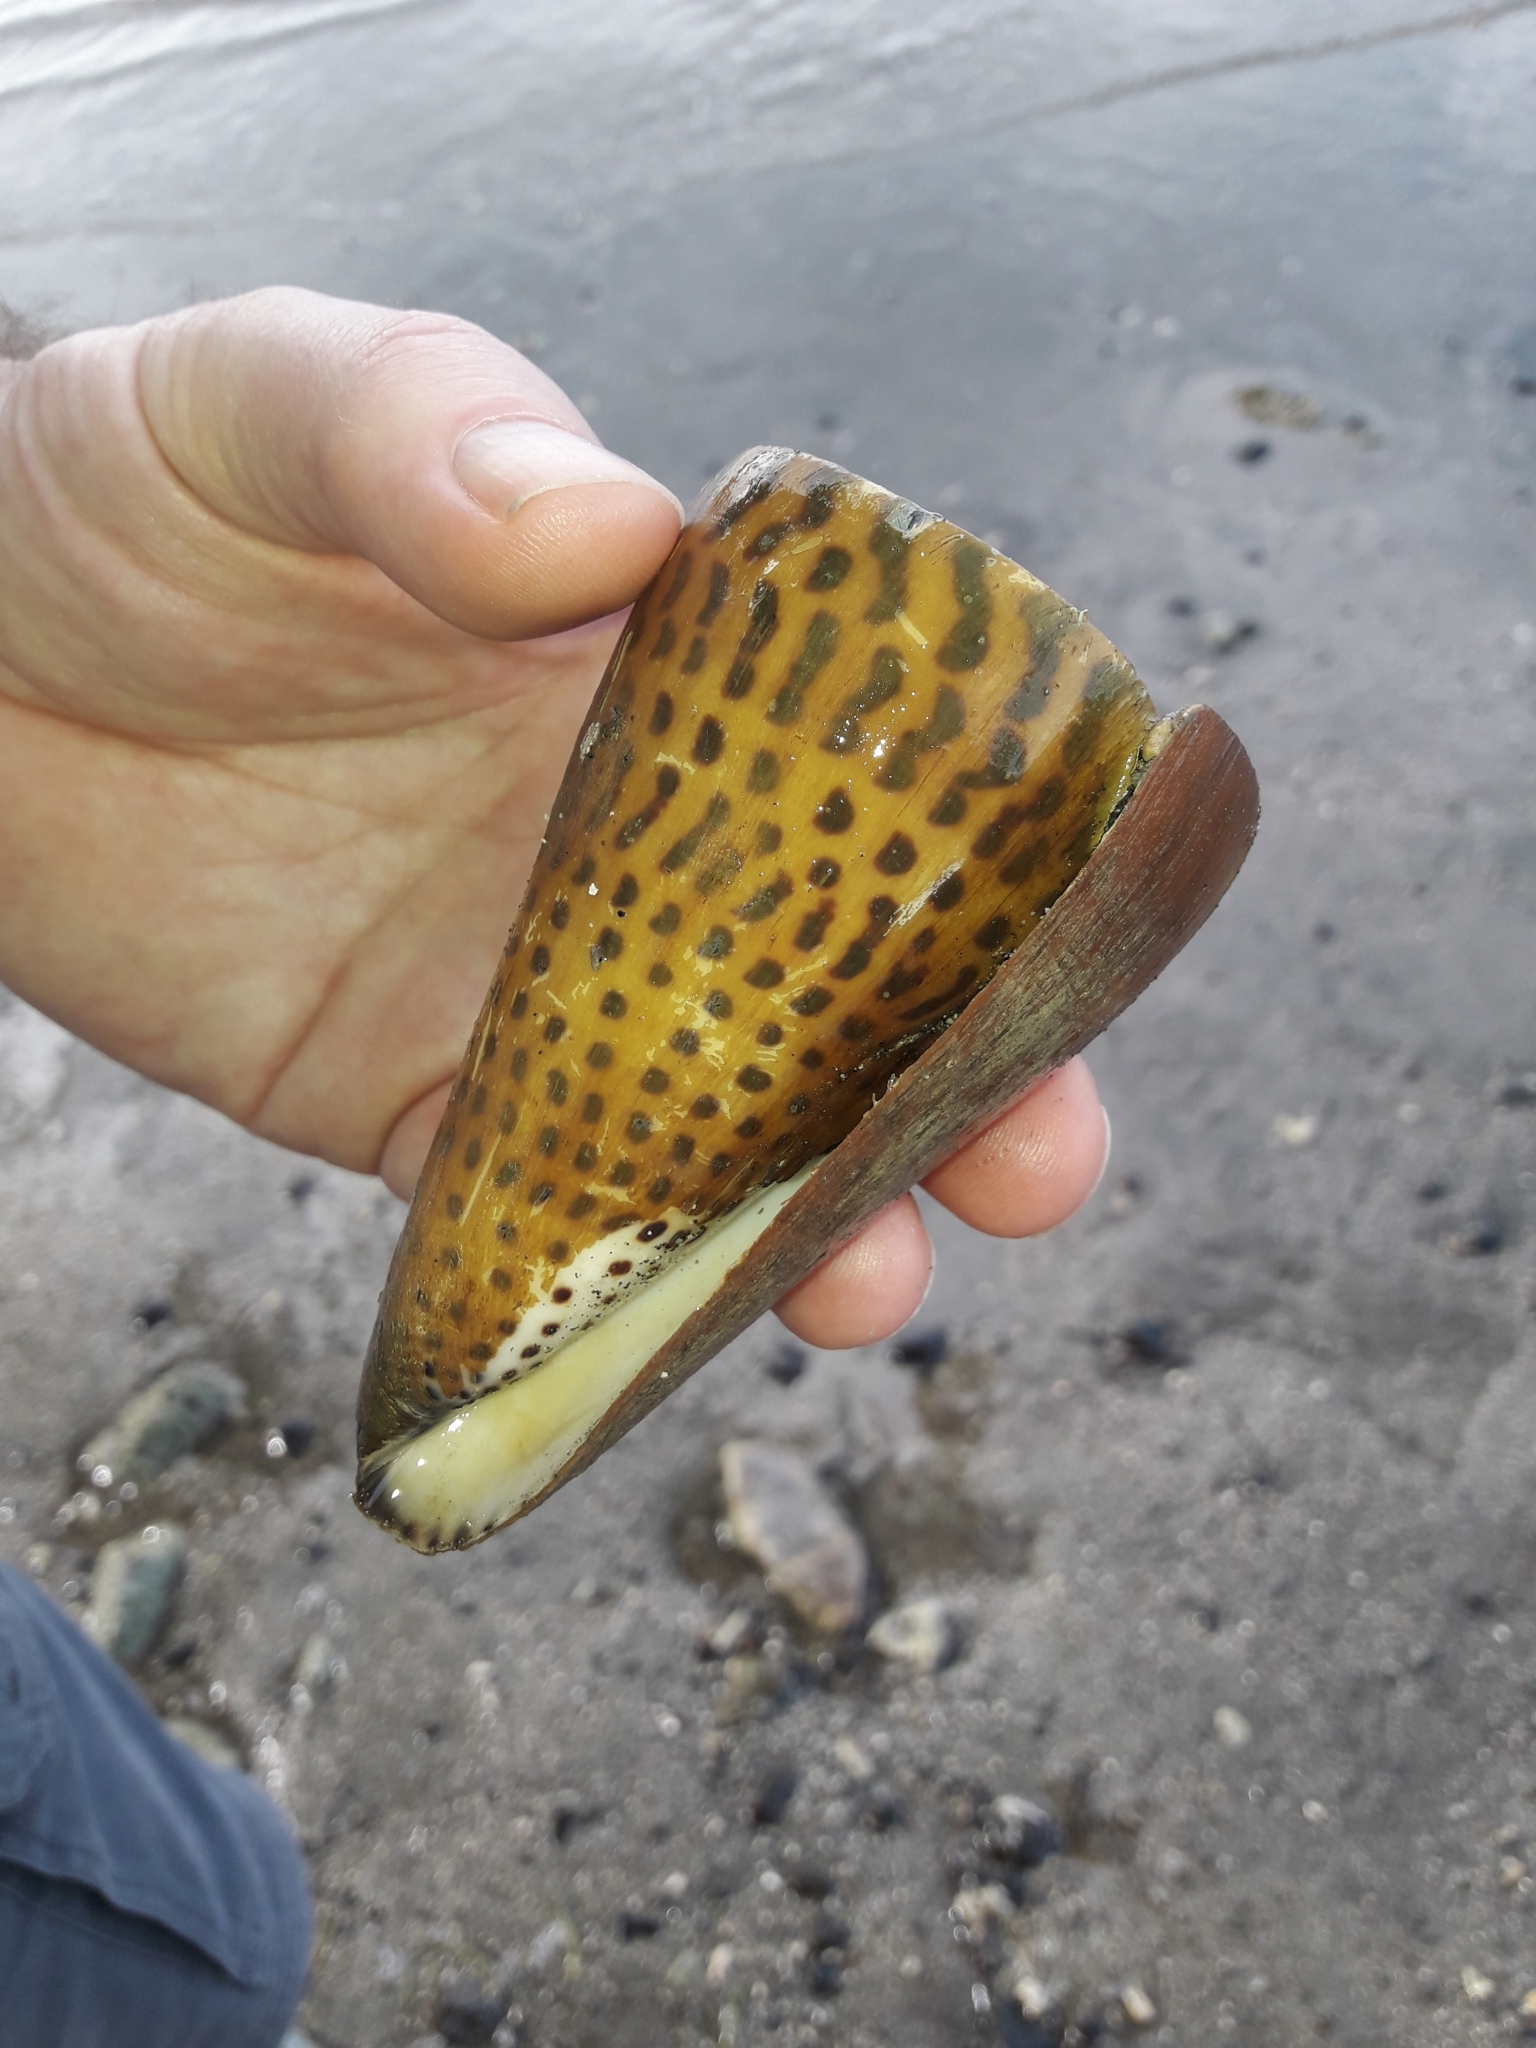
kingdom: Animalia
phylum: Mollusca
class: Gastropoda
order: Neogastropoda
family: Conidae
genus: Conus
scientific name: Conus litteratus
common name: Lettered cone
